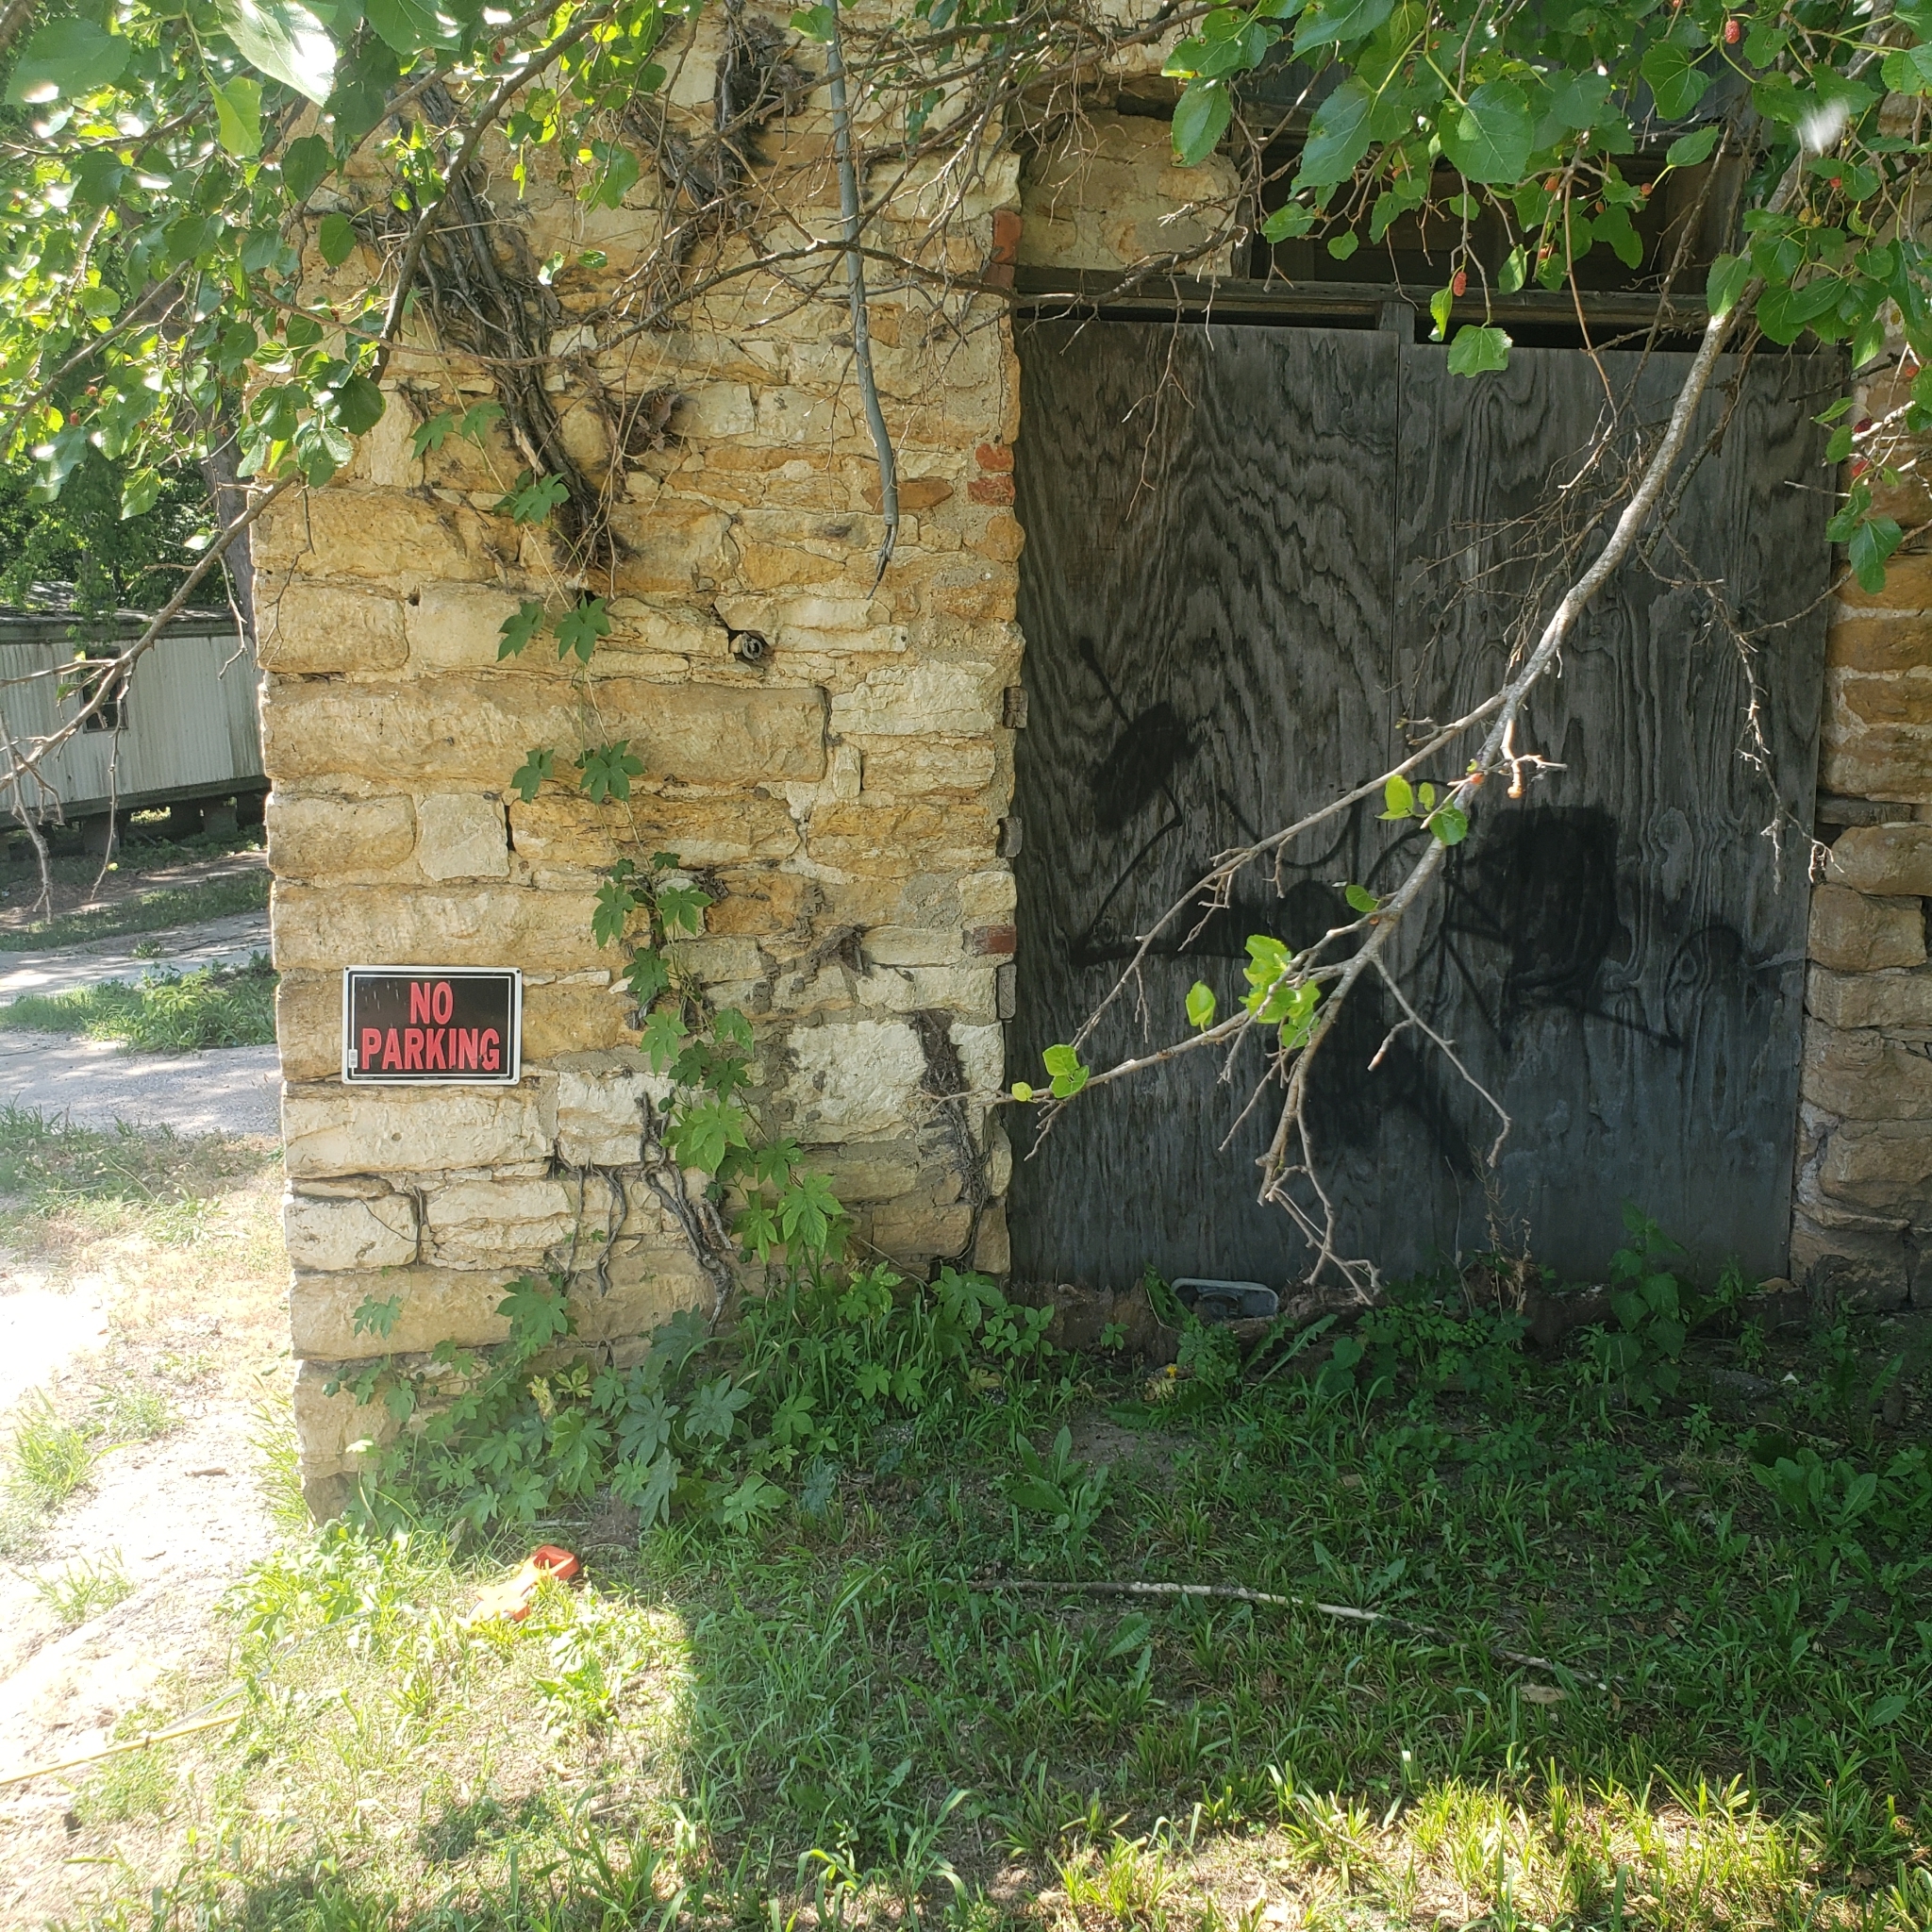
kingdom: Plantae
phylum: Tracheophyta
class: Magnoliopsida
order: Rosales
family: Cannabaceae
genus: Humulus
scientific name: Humulus scandens
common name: Japanese hop
